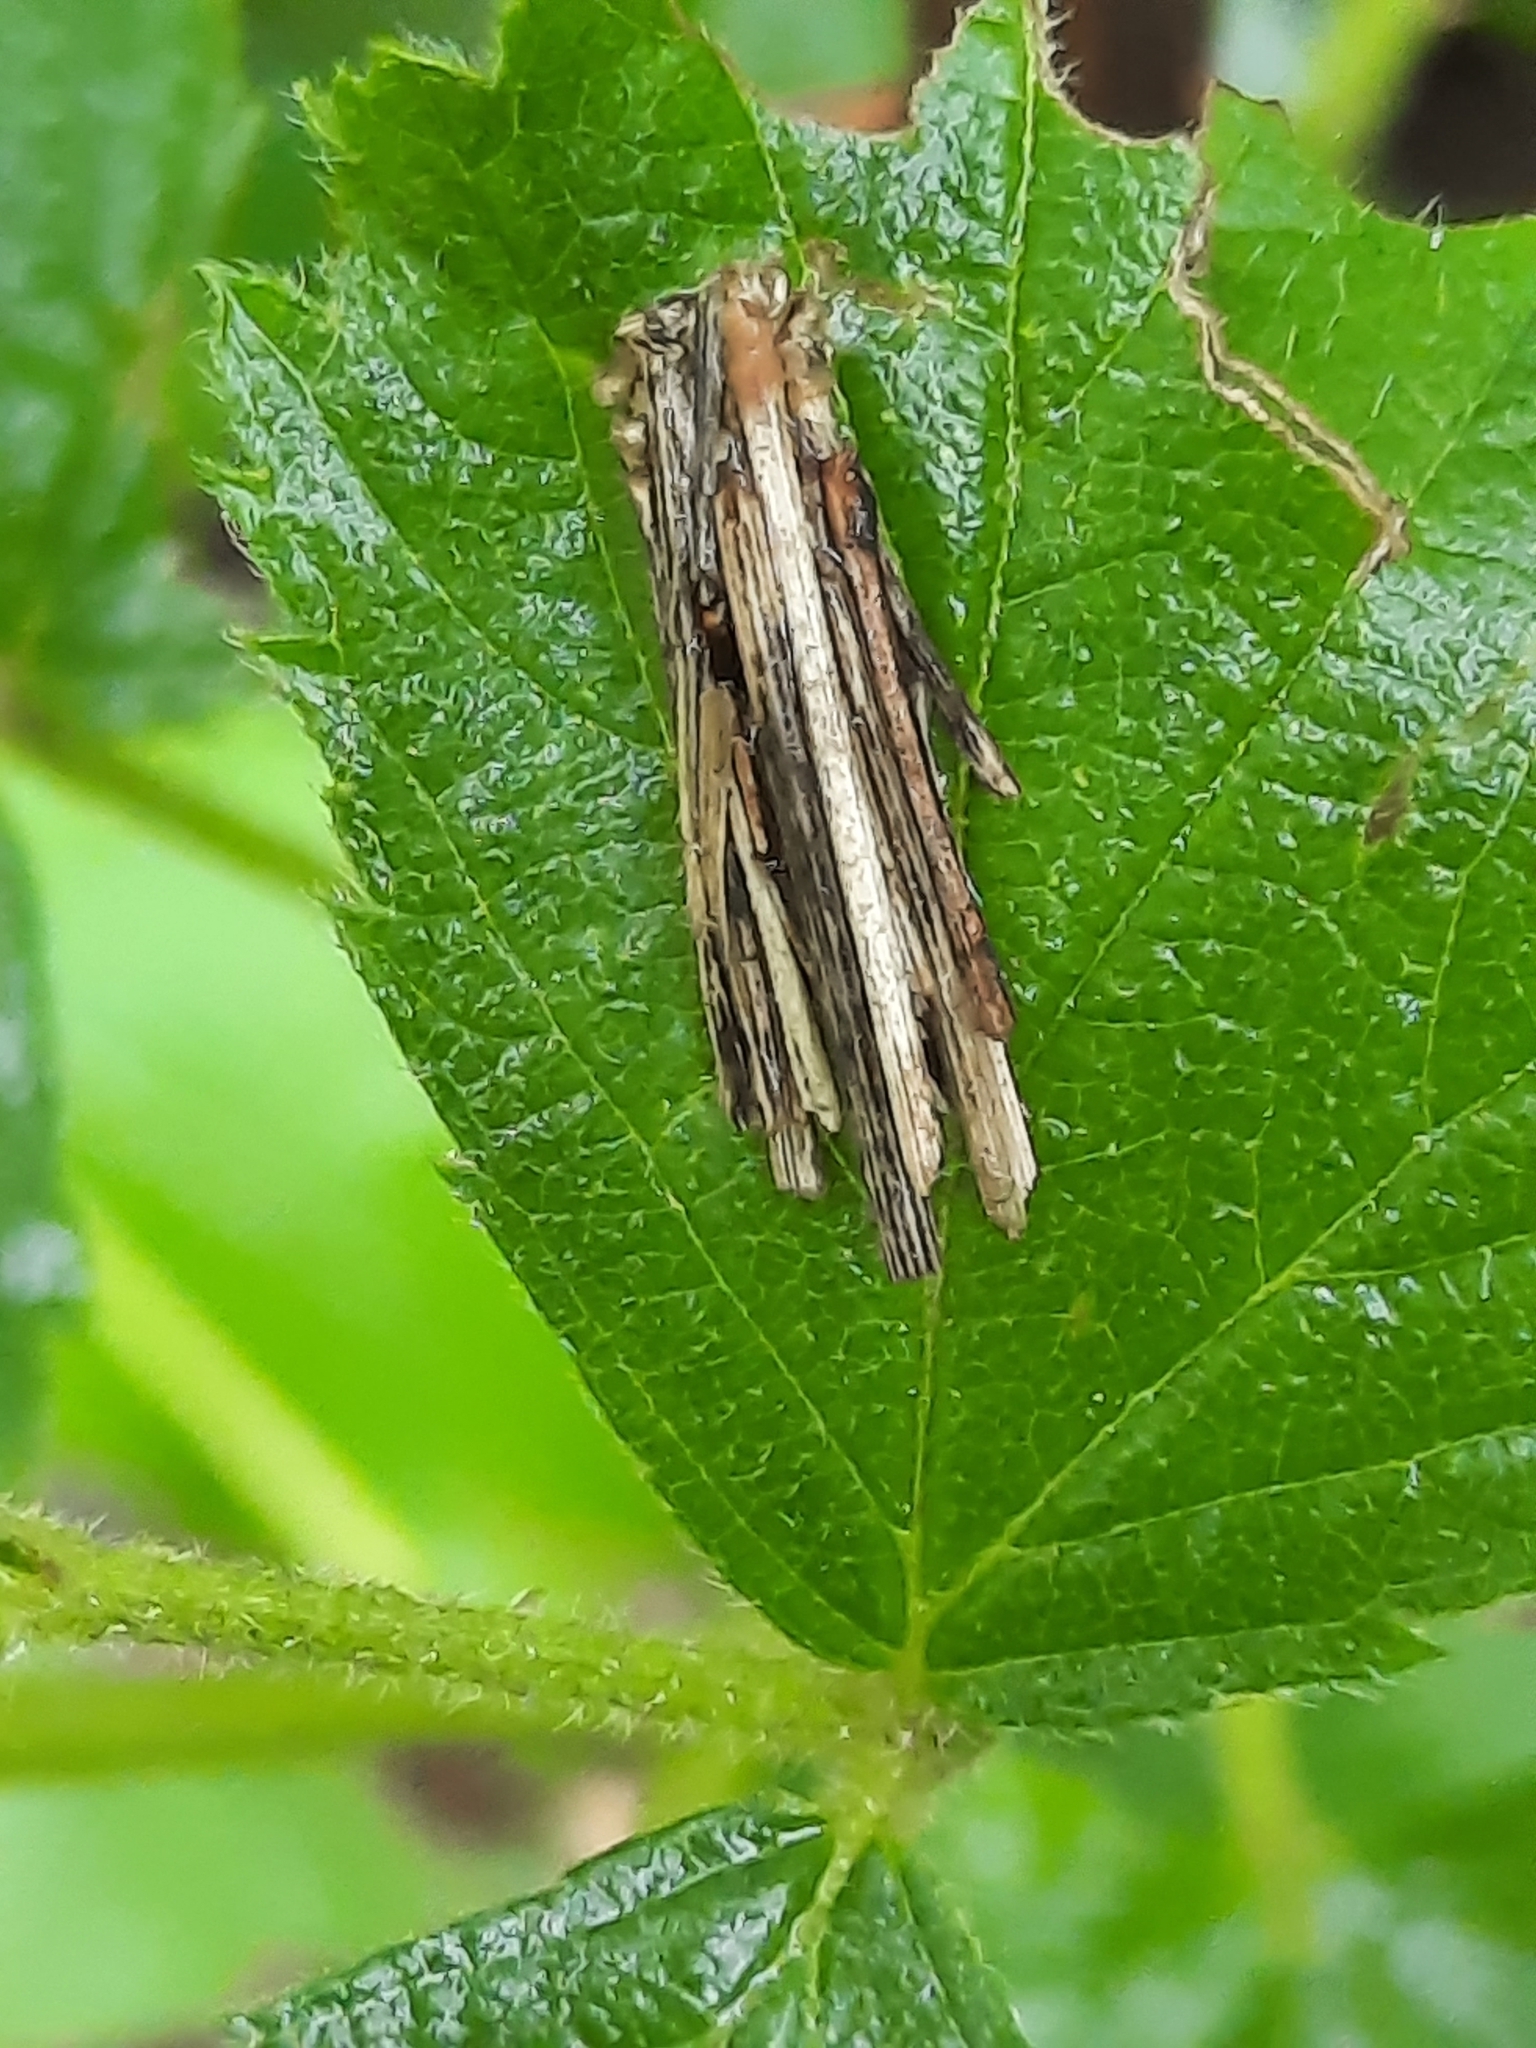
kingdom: Animalia
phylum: Arthropoda
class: Insecta
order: Lepidoptera
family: Psychidae
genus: Psyche
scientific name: Psyche casta
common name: Common sweep
